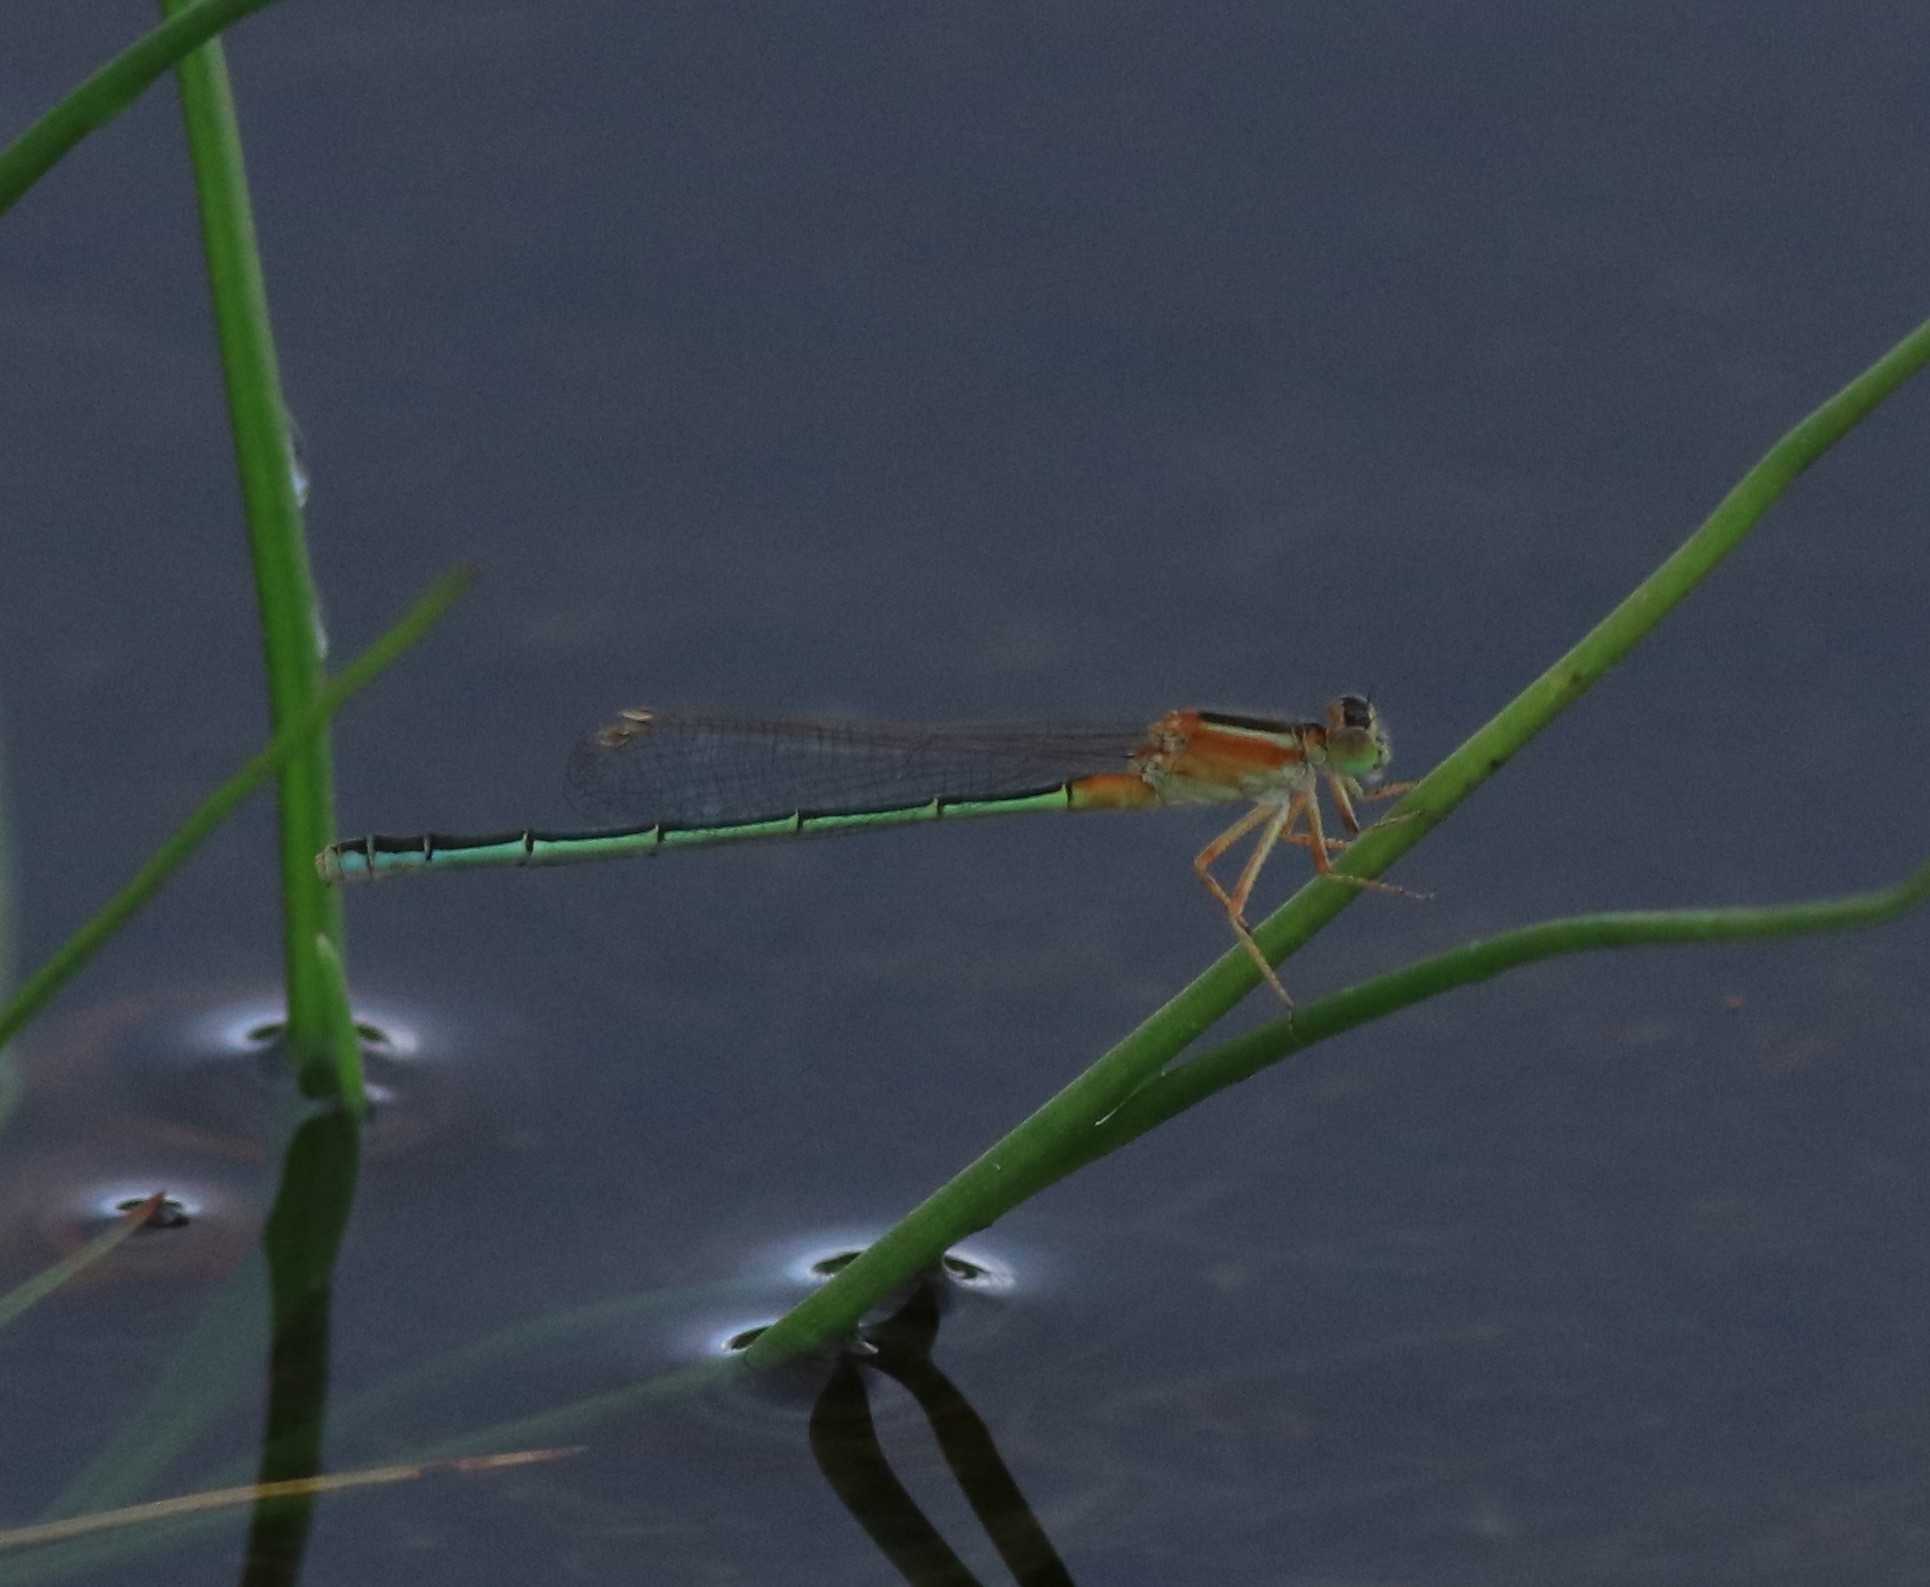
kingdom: Animalia
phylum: Arthropoda
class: Insecta
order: Odonata
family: Coenagrionidae
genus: Ischnura
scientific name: Ischnura senegalensis
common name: Tropical bluetail
